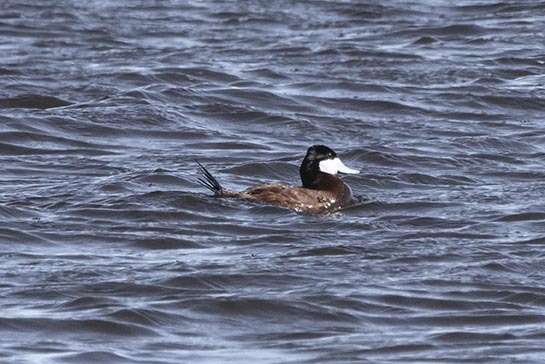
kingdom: Animalia
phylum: Chordata
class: Aves
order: Anseriformes
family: Anatidae
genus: Oxyura
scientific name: Oxyura jamaicensis
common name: Ruddy duck
